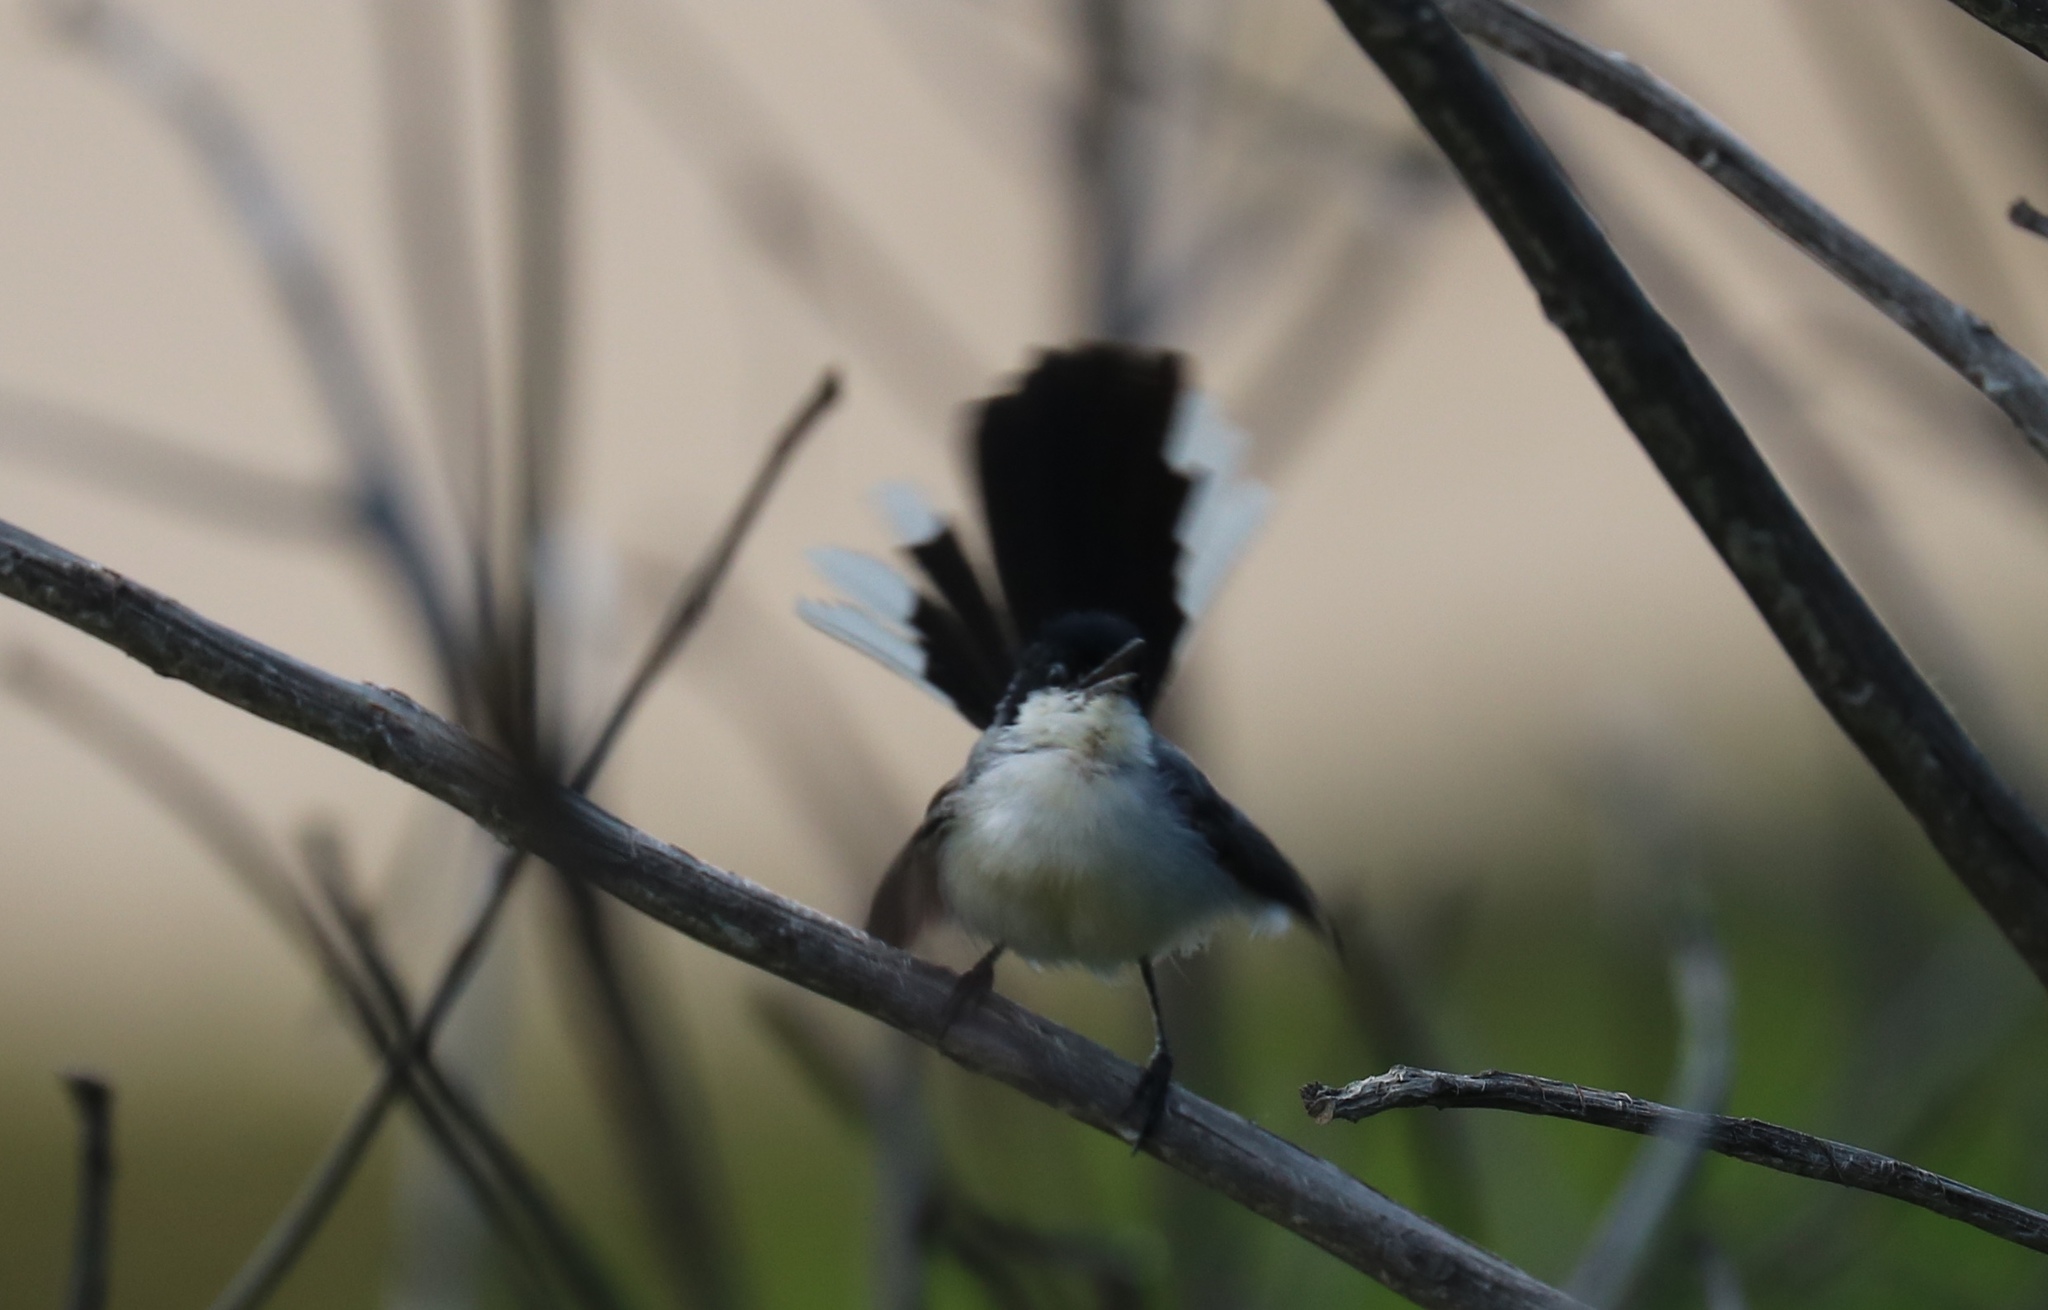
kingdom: Animalia
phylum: Chordata
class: Aves
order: Passeriformes
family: Polioptilidae
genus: Polioptila
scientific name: Polioptila plumbea
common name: Tropical gnatcatcher
